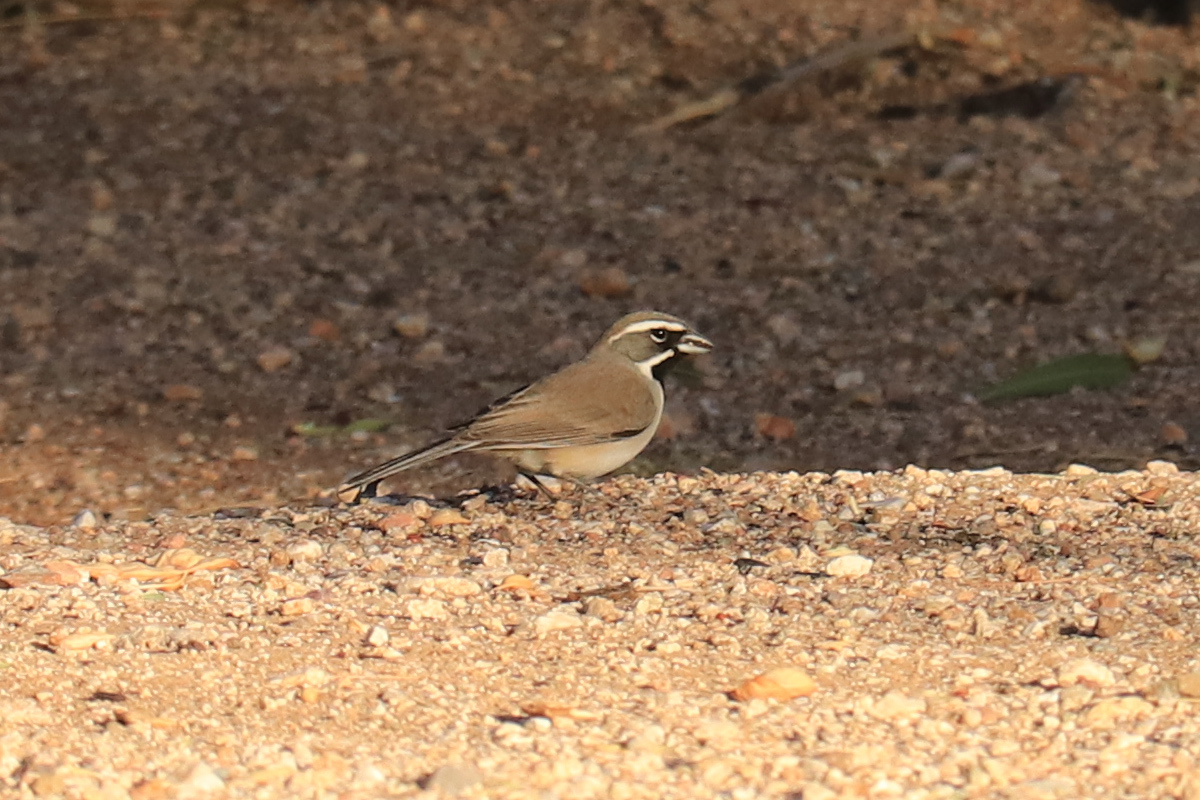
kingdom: Animalia
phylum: Chordata
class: Aves
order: Passeriformes
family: Passerellidae
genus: Amphispiza
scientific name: Amphispiza bilineata
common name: Black-throated sparrow
